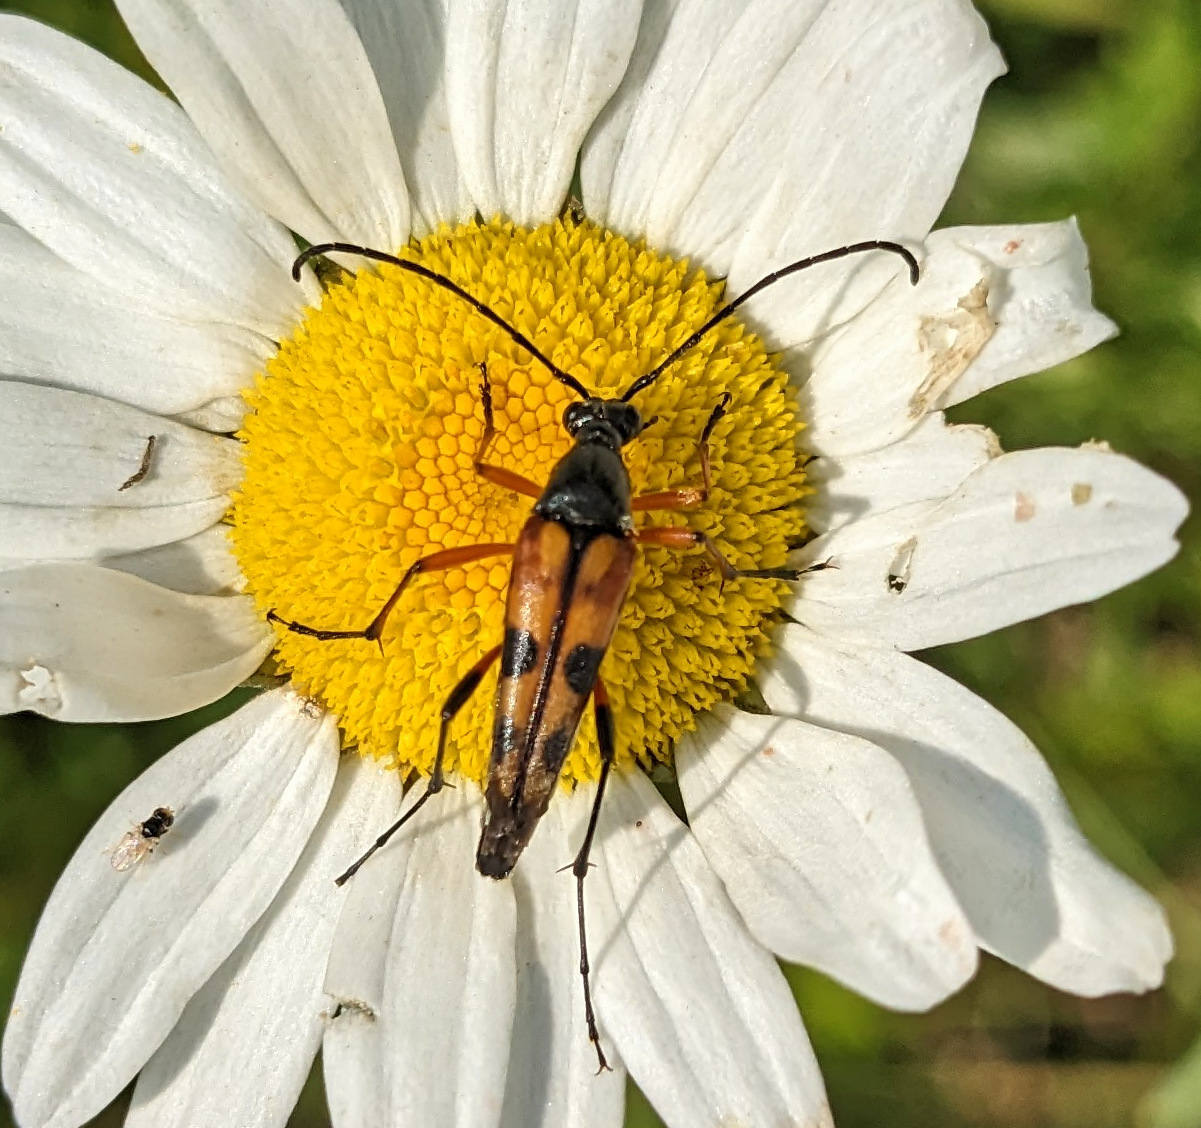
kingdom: Animalia
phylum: Arthropoda
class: Insecta
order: Coleoptera
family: Cerambycidae
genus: Strangalia
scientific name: Strangalia famelica
